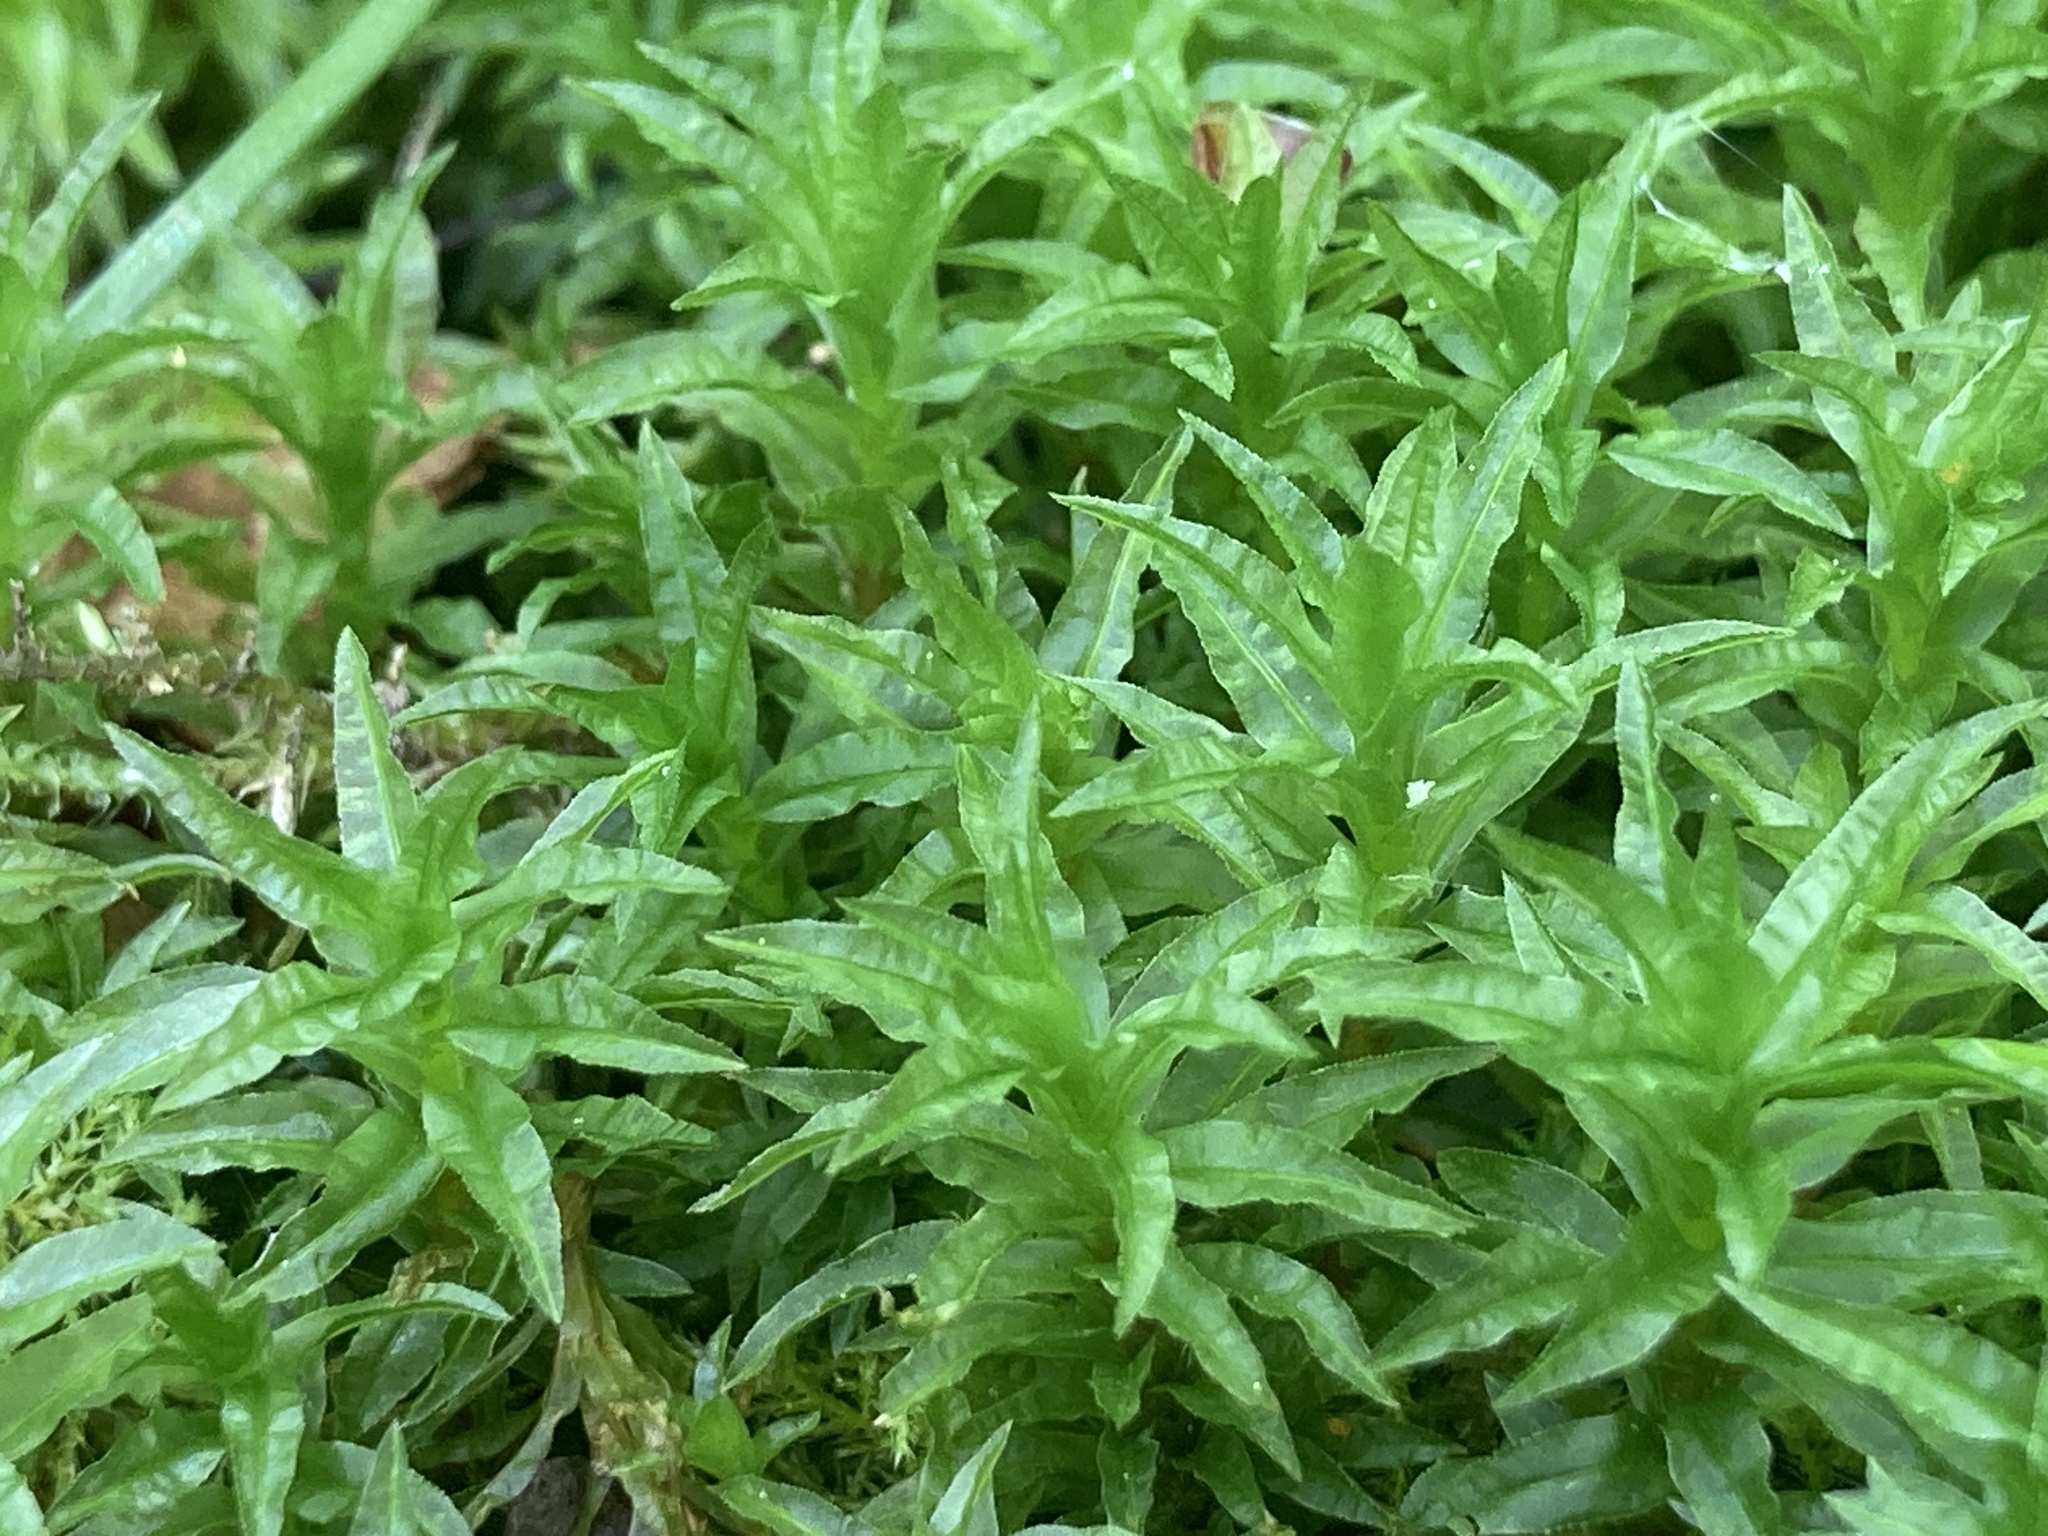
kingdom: Plantae
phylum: Bryophyta
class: Polytrichopsida
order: Polytrichales
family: Polytrichaceae
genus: Atrichum
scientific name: Atrichum undulatum
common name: Common smoothcap
